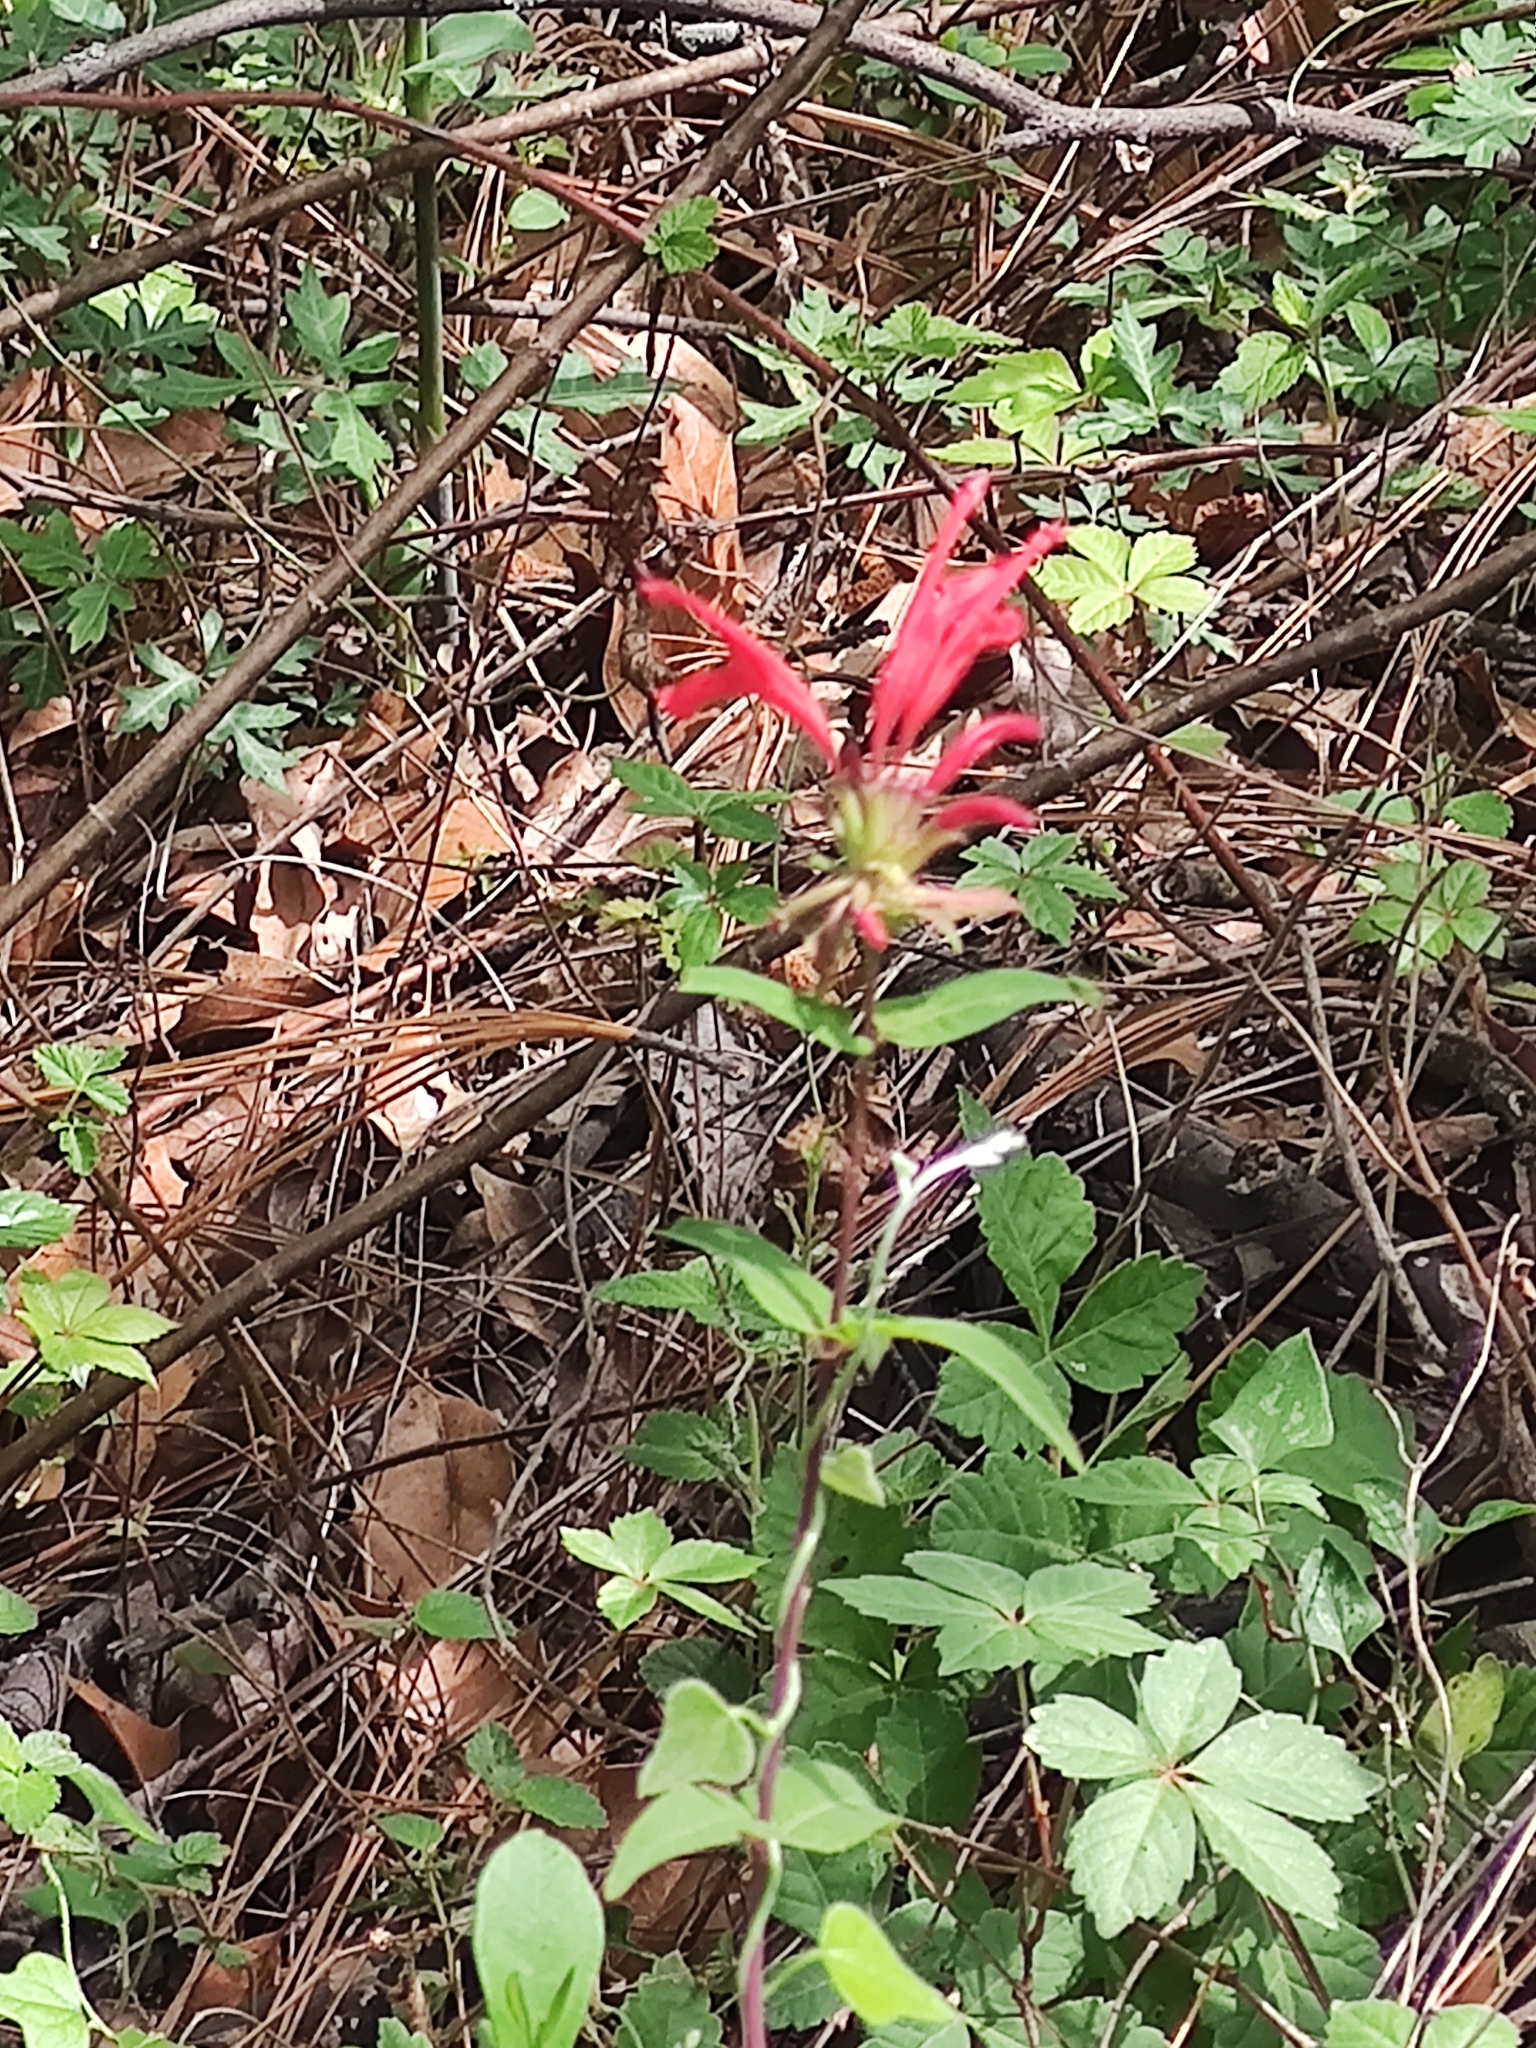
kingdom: Plantae
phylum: Tracheophyta
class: Magnoliopsida
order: Lamiales
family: Lamiaceae
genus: Monarda
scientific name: Monarda pringlei
